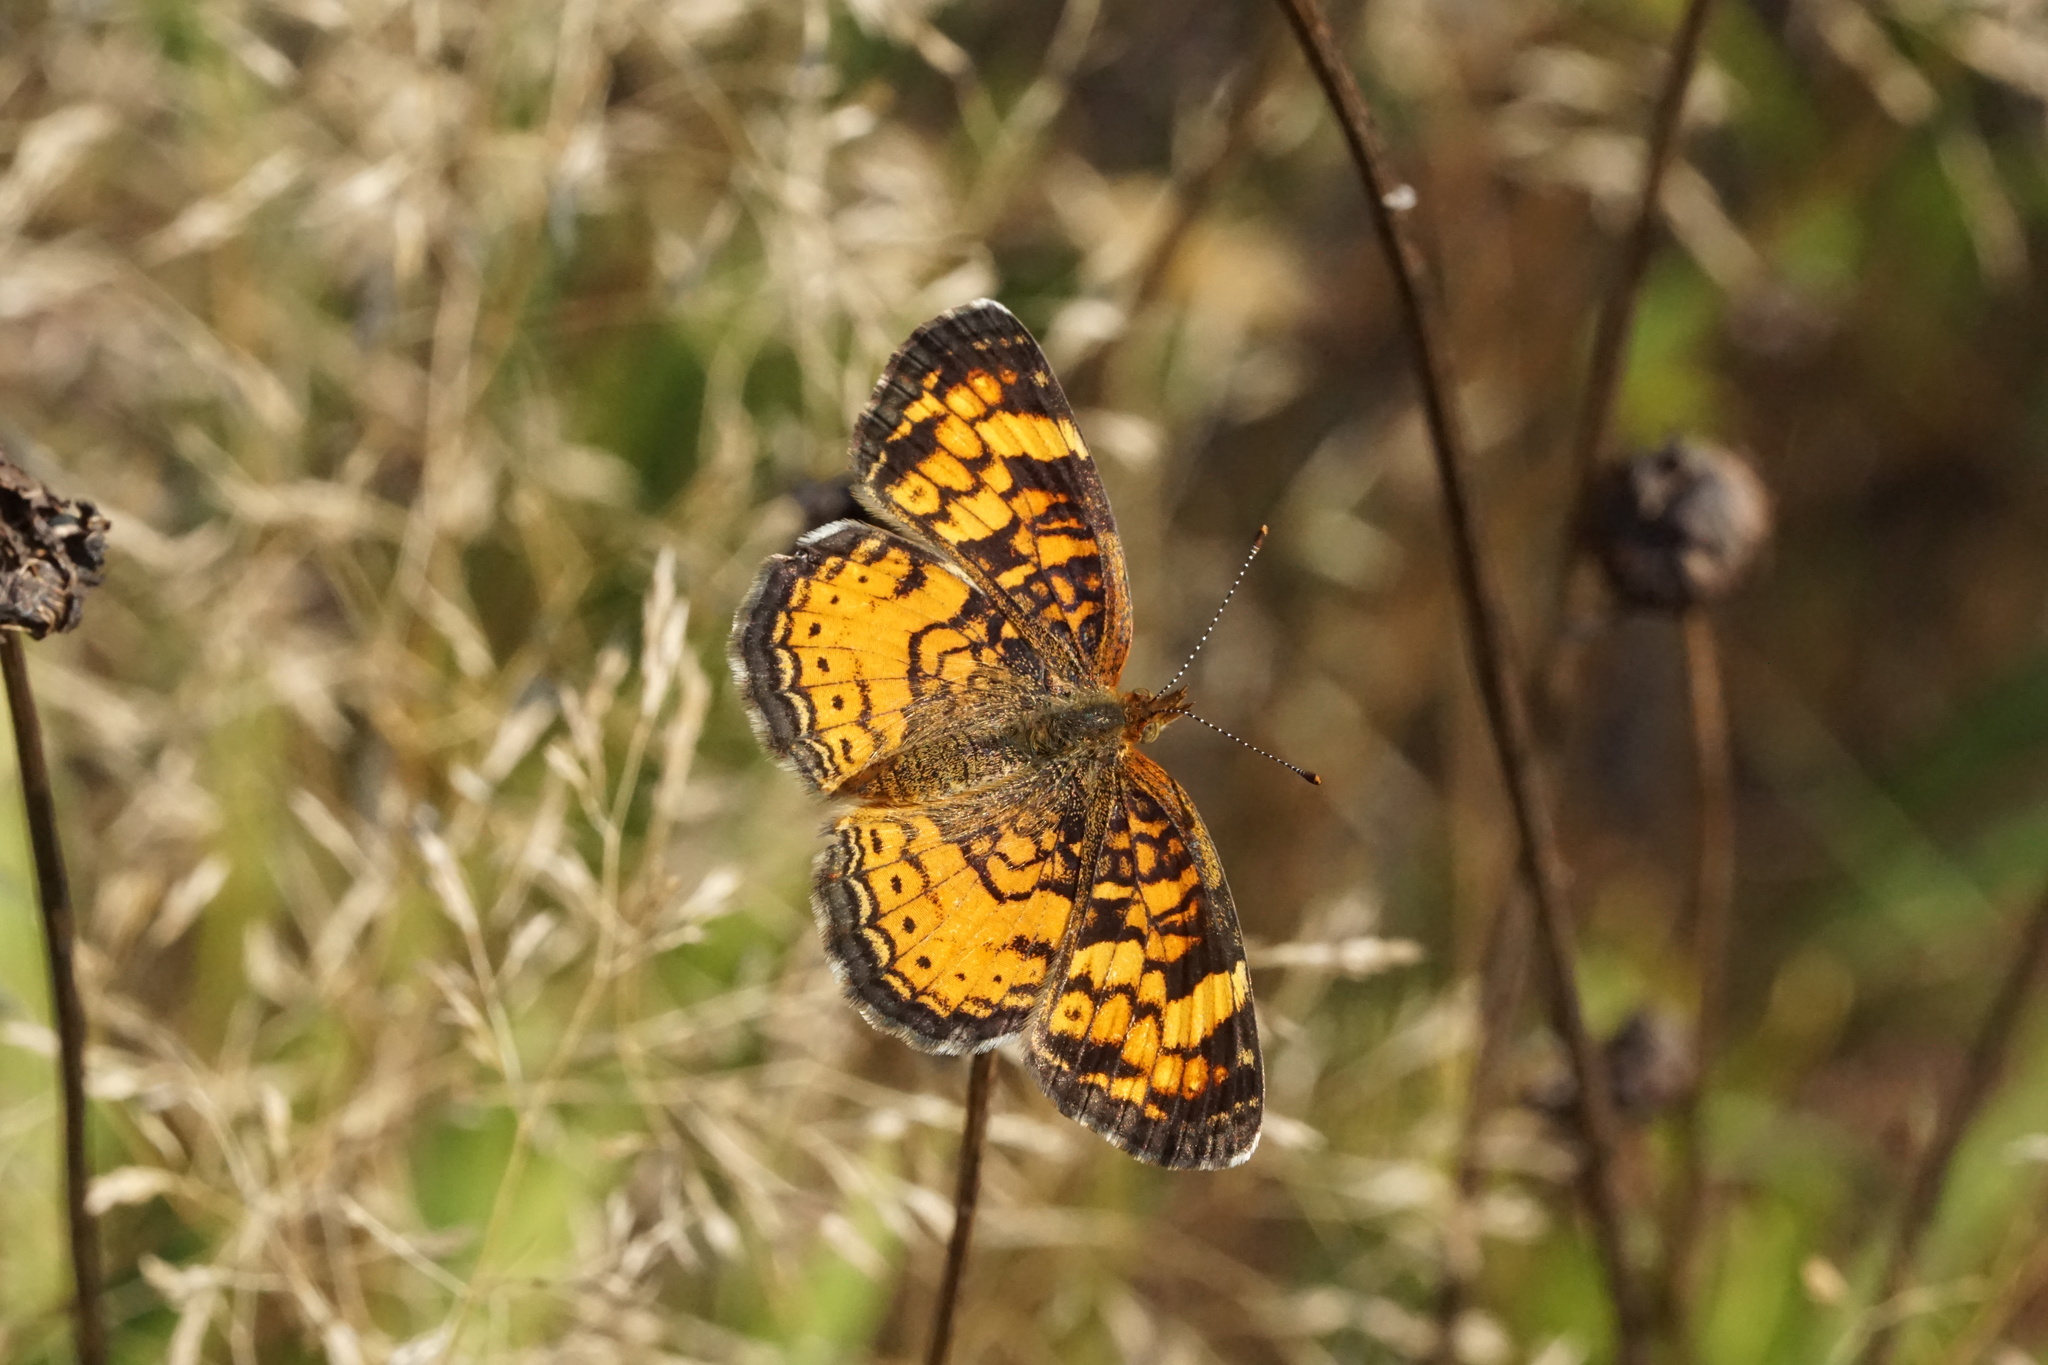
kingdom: Animalia
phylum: Arthropoda
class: Insecta
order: Lepidoptera
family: Nymphalidae
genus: Phyciodes
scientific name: Phyciodes tharos
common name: Pearl crescent
